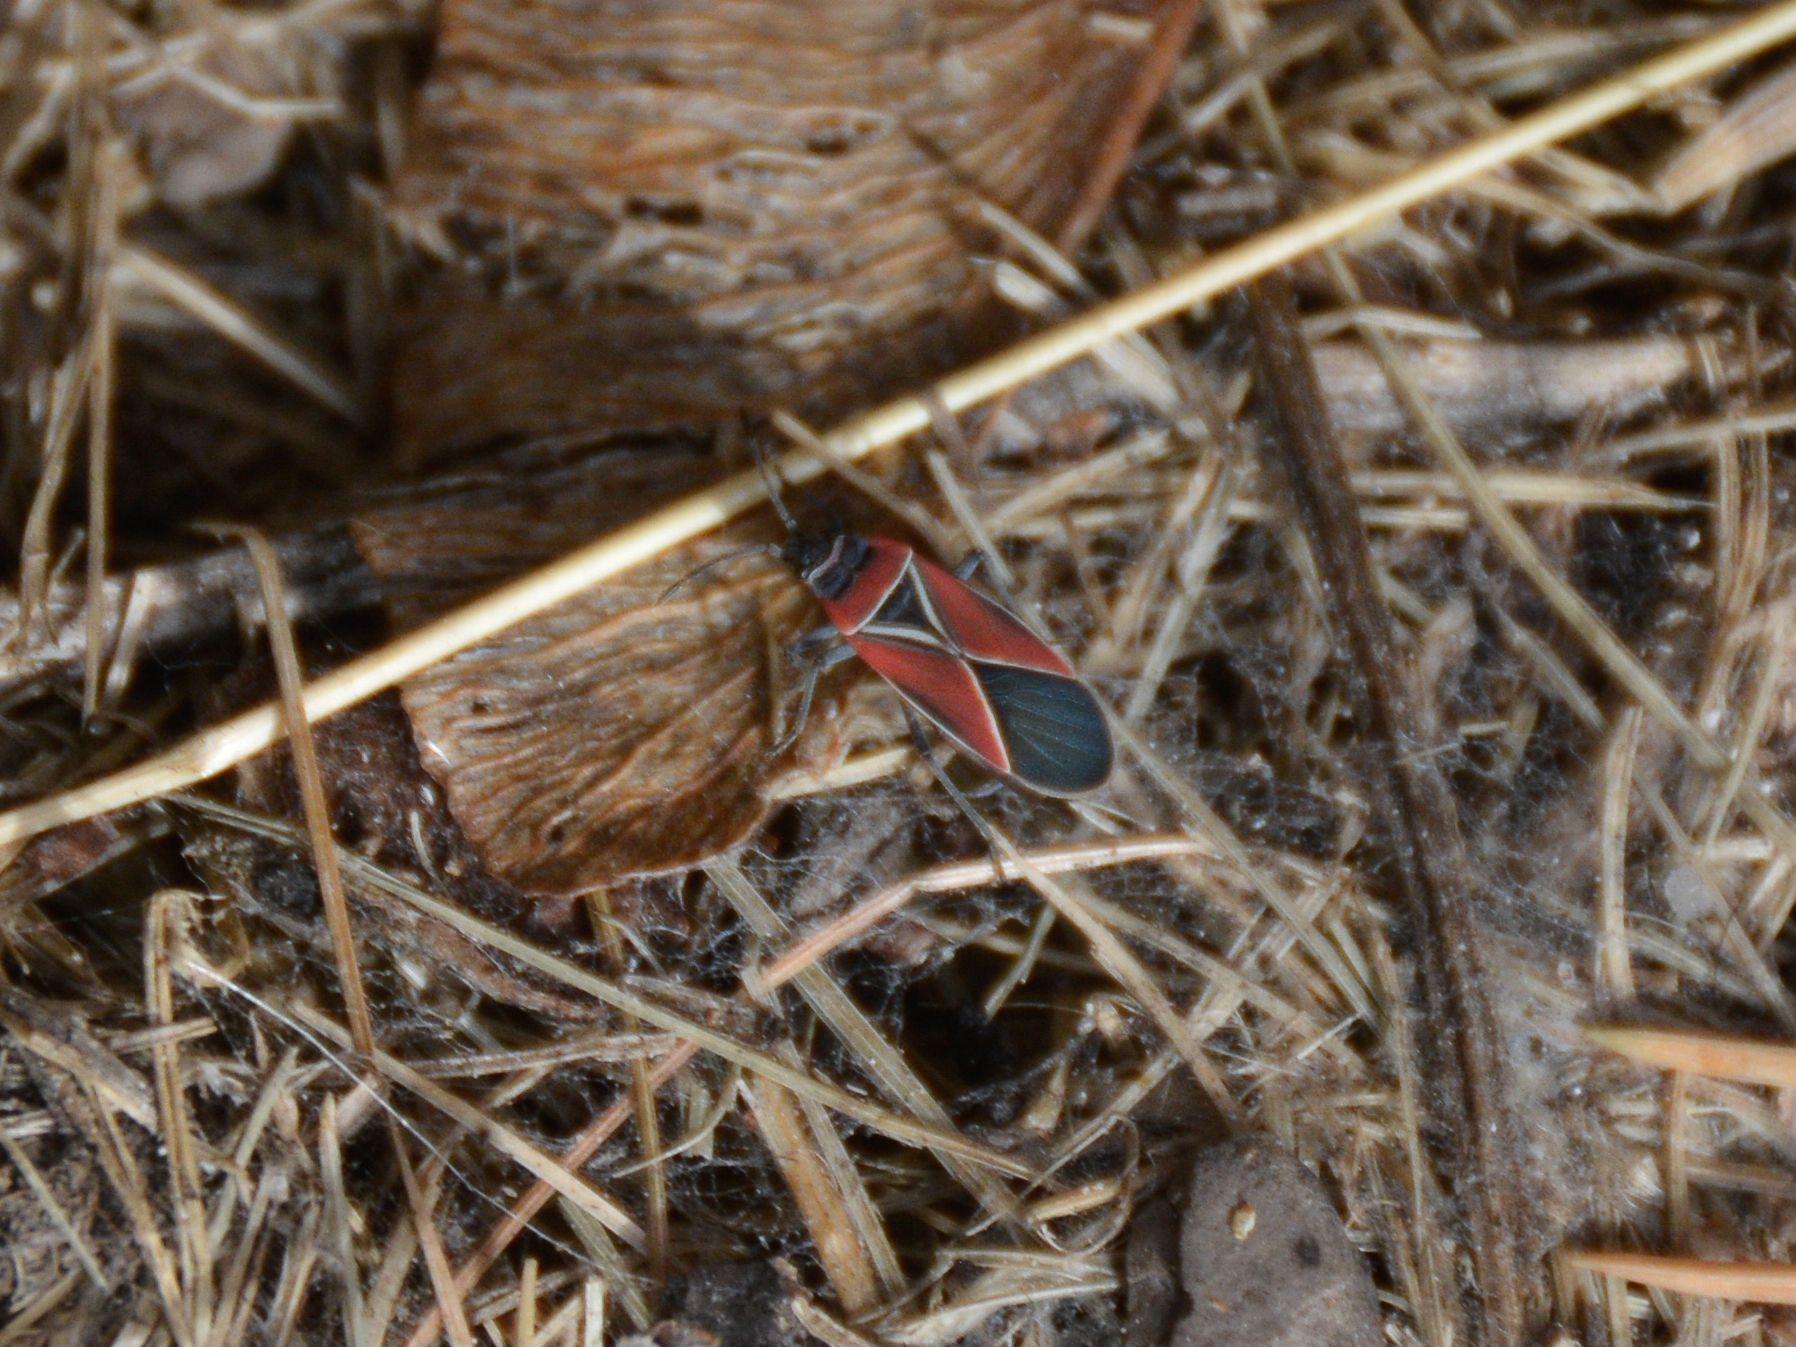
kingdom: Animalia
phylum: Arthropoda
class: Insecta
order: Hemiptera
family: Lygaeidae
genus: Neacoryphus
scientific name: Neacoryphus bicrucis
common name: Lygaeid bug
